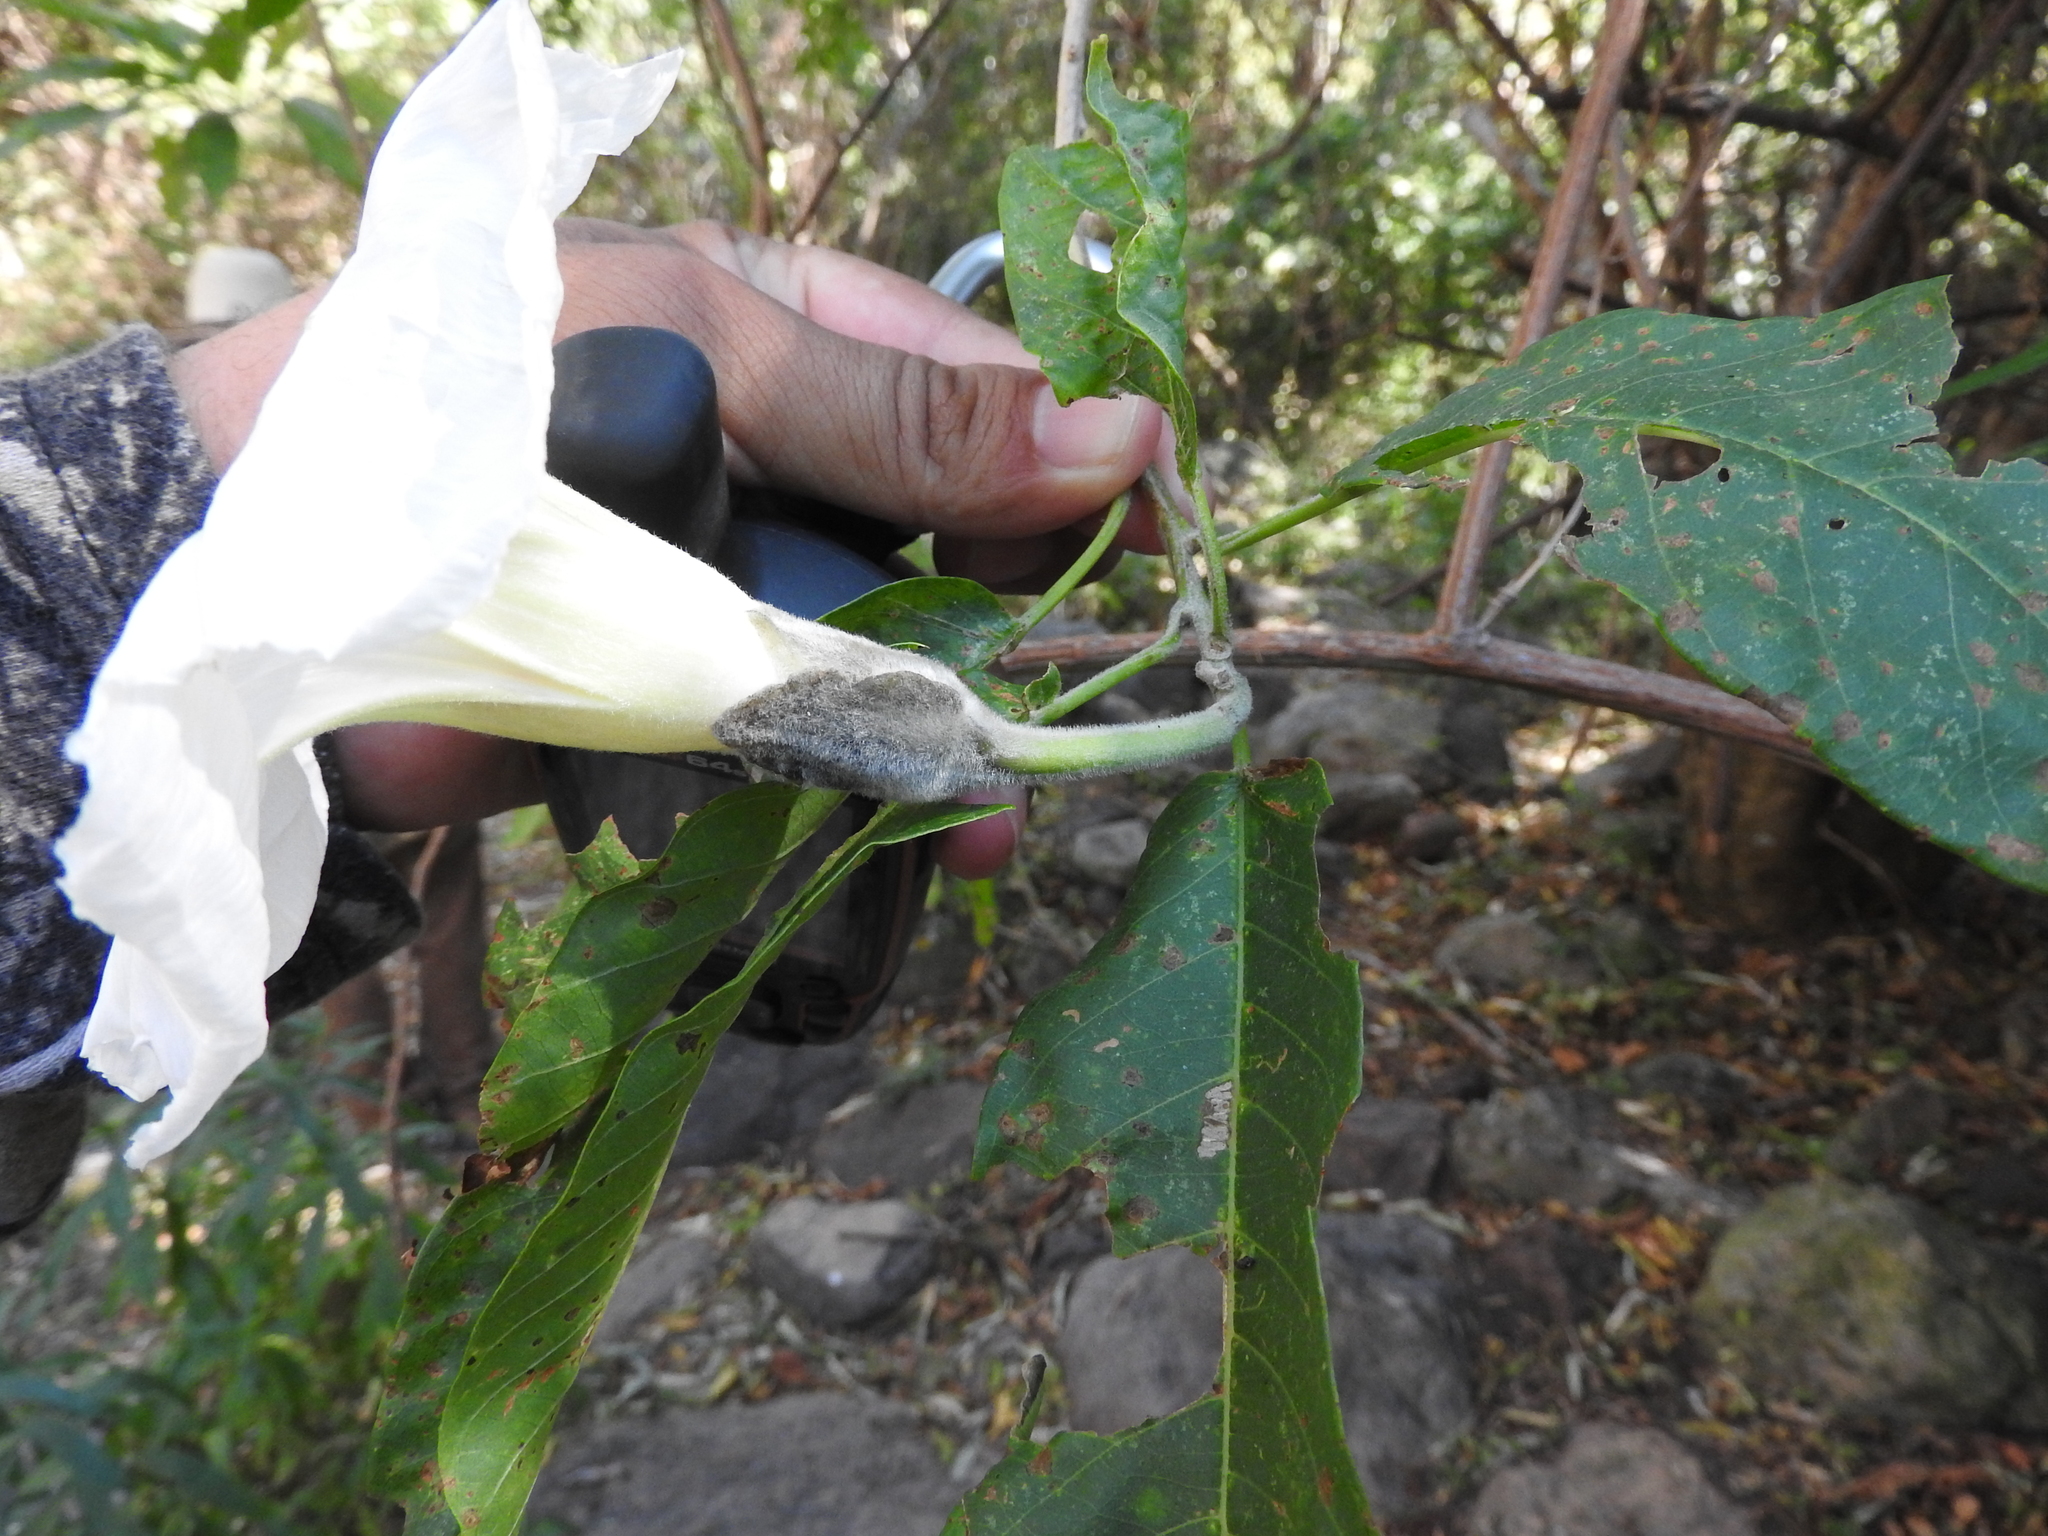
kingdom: Plantae
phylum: Tracheophyta
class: Magnoliopsida
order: Solanales
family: Convolvulaceae
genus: Ipomoea
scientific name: Ipomoea murucoides
